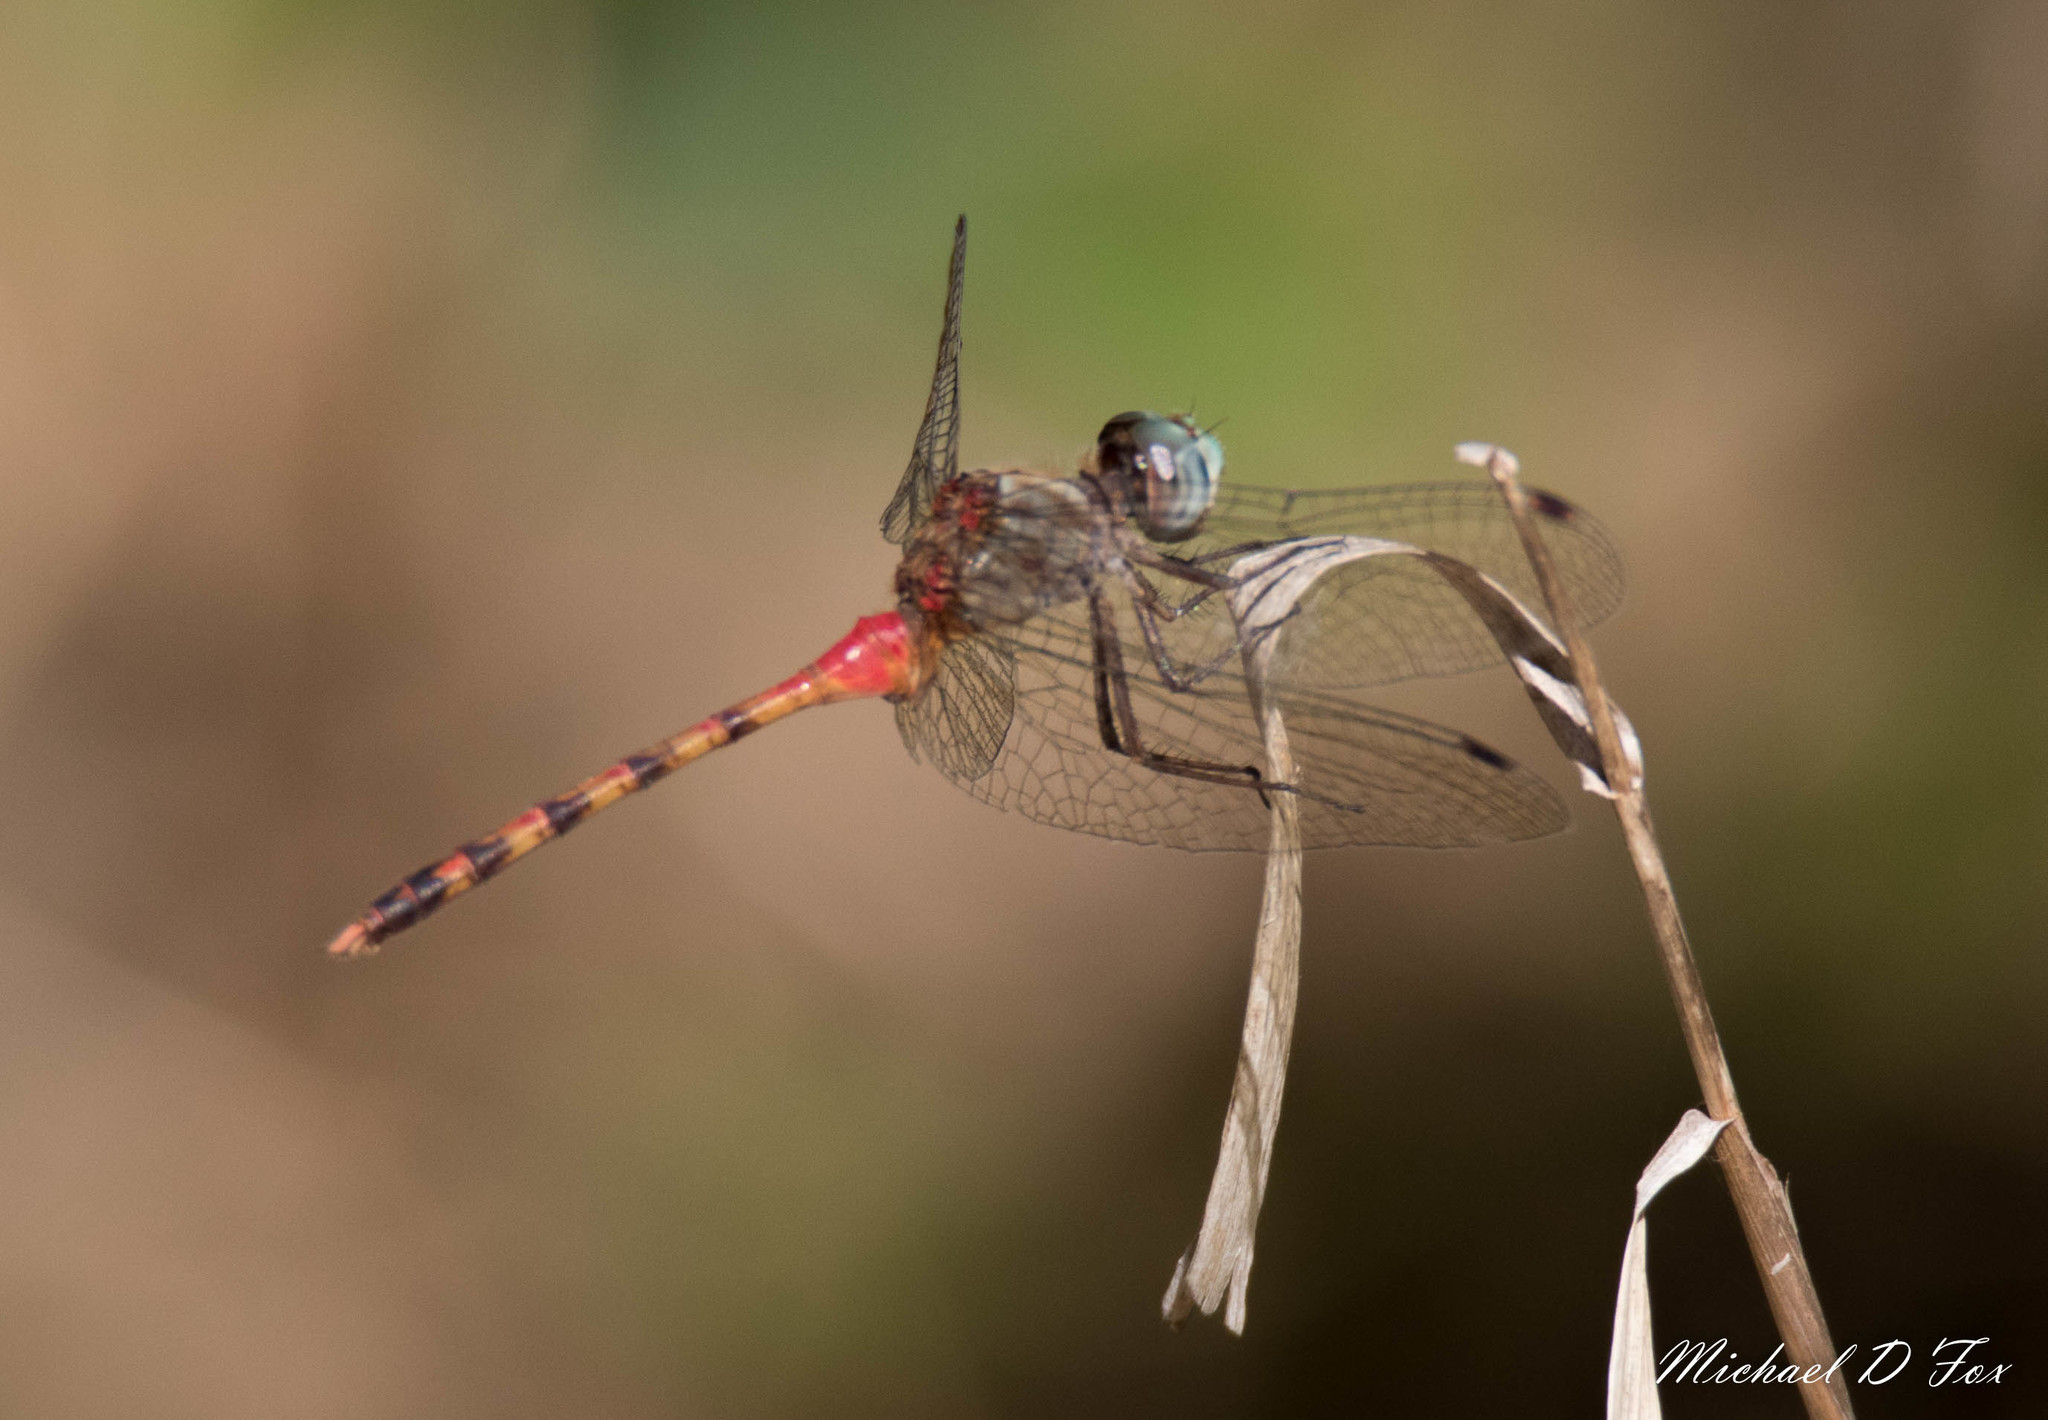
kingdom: Animalia
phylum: Arthropoda
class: Insecta
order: Odonata
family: Libellulidae
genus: Sympetrum
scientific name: Sympetrum ambiguum
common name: Blue-faced meadowhawk
